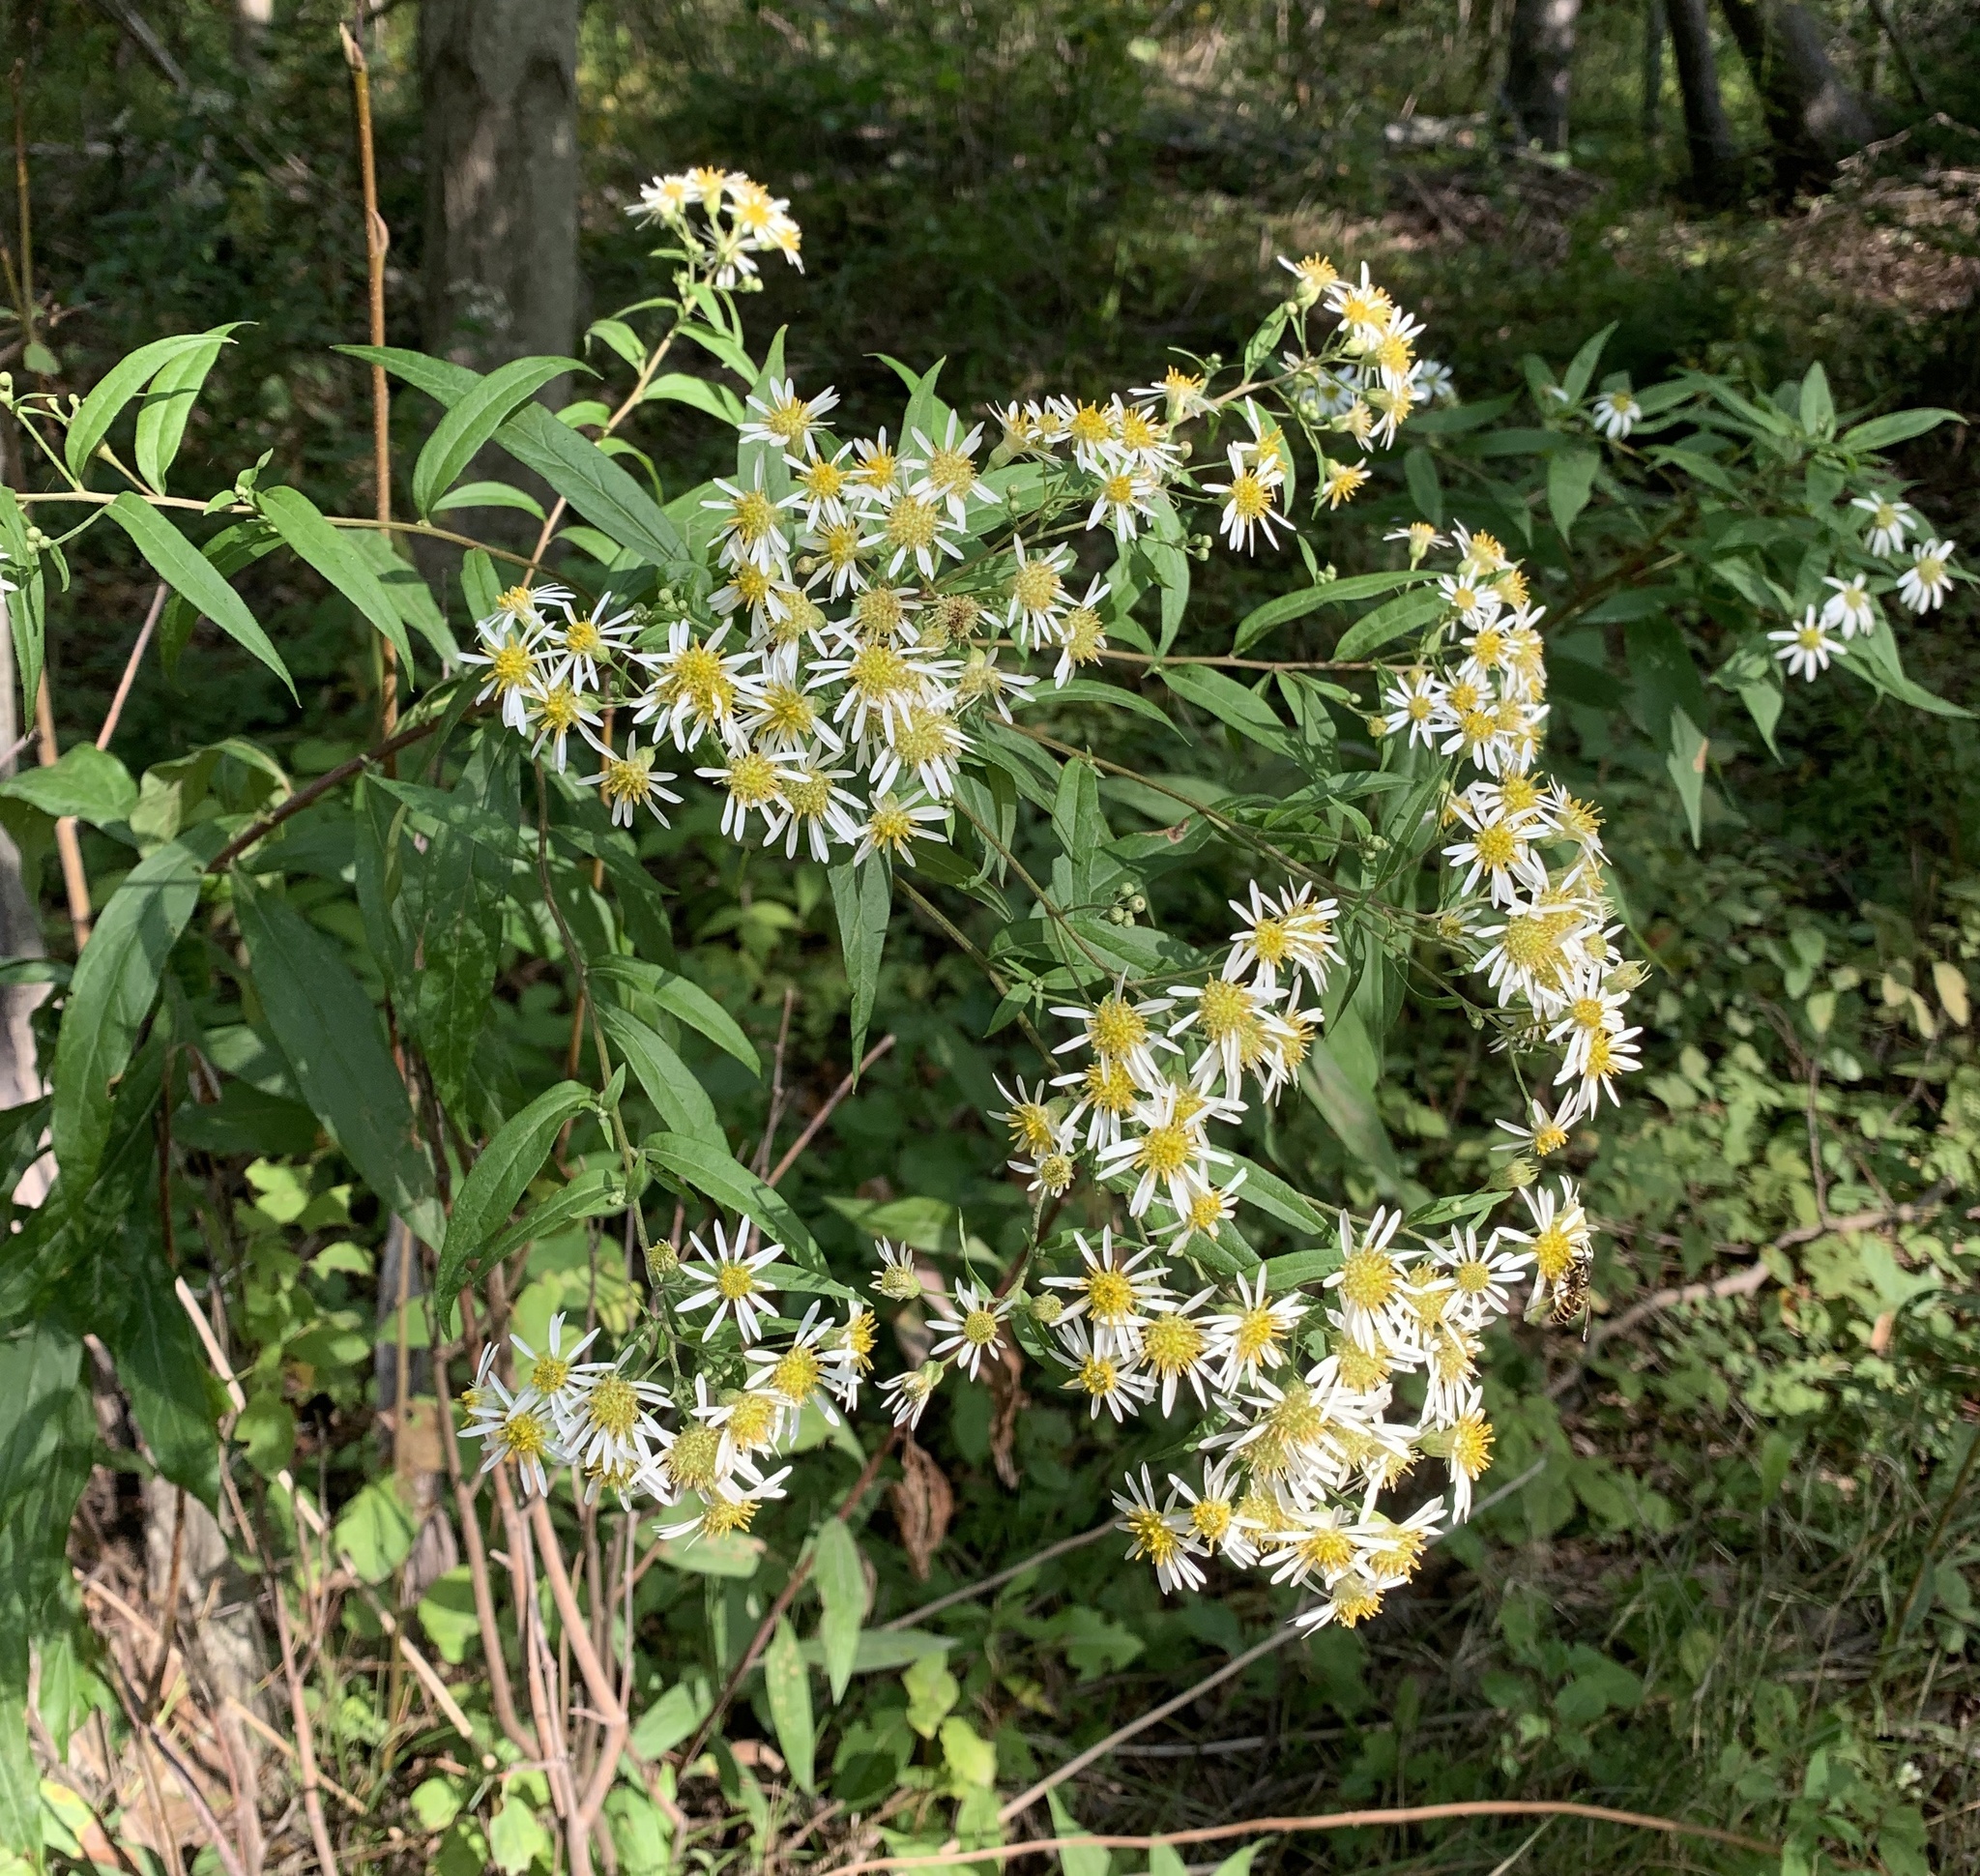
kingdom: Plantae
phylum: Tracheophyta
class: Magnoliopsida
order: Asterales
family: Asteraceae
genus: Doellingeria
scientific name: Doellingeria umbellata
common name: Flat-top white aster
